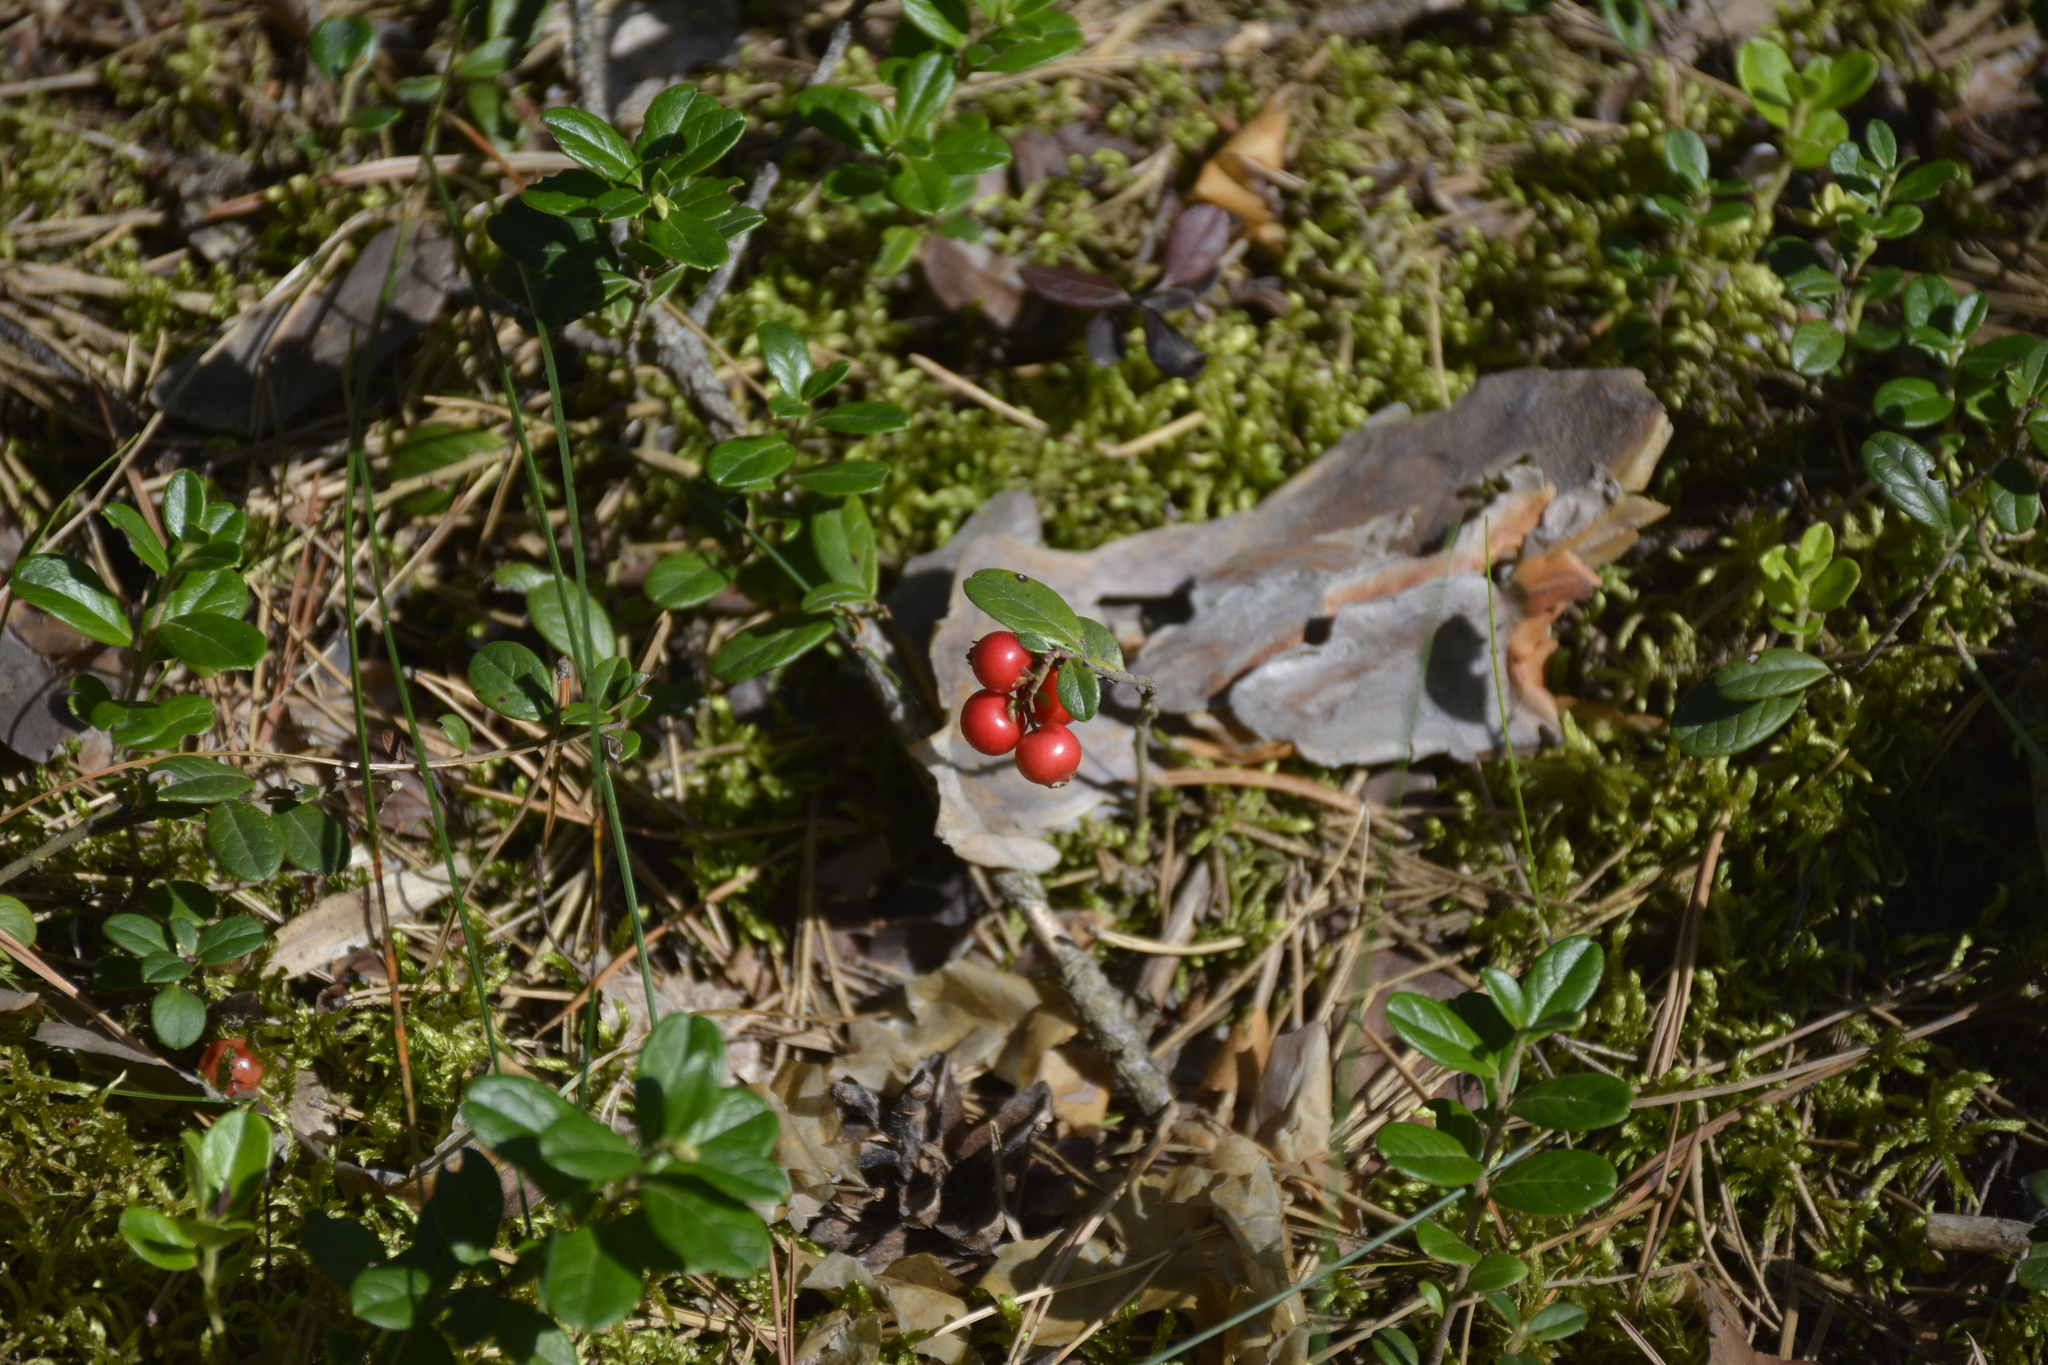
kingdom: Plantae
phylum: Tracheophyta
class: Magnoliopsida
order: Ericales
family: Ericaceae
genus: Vaccinium
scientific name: Vaccinium vitis-idaea
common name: Cowberry
